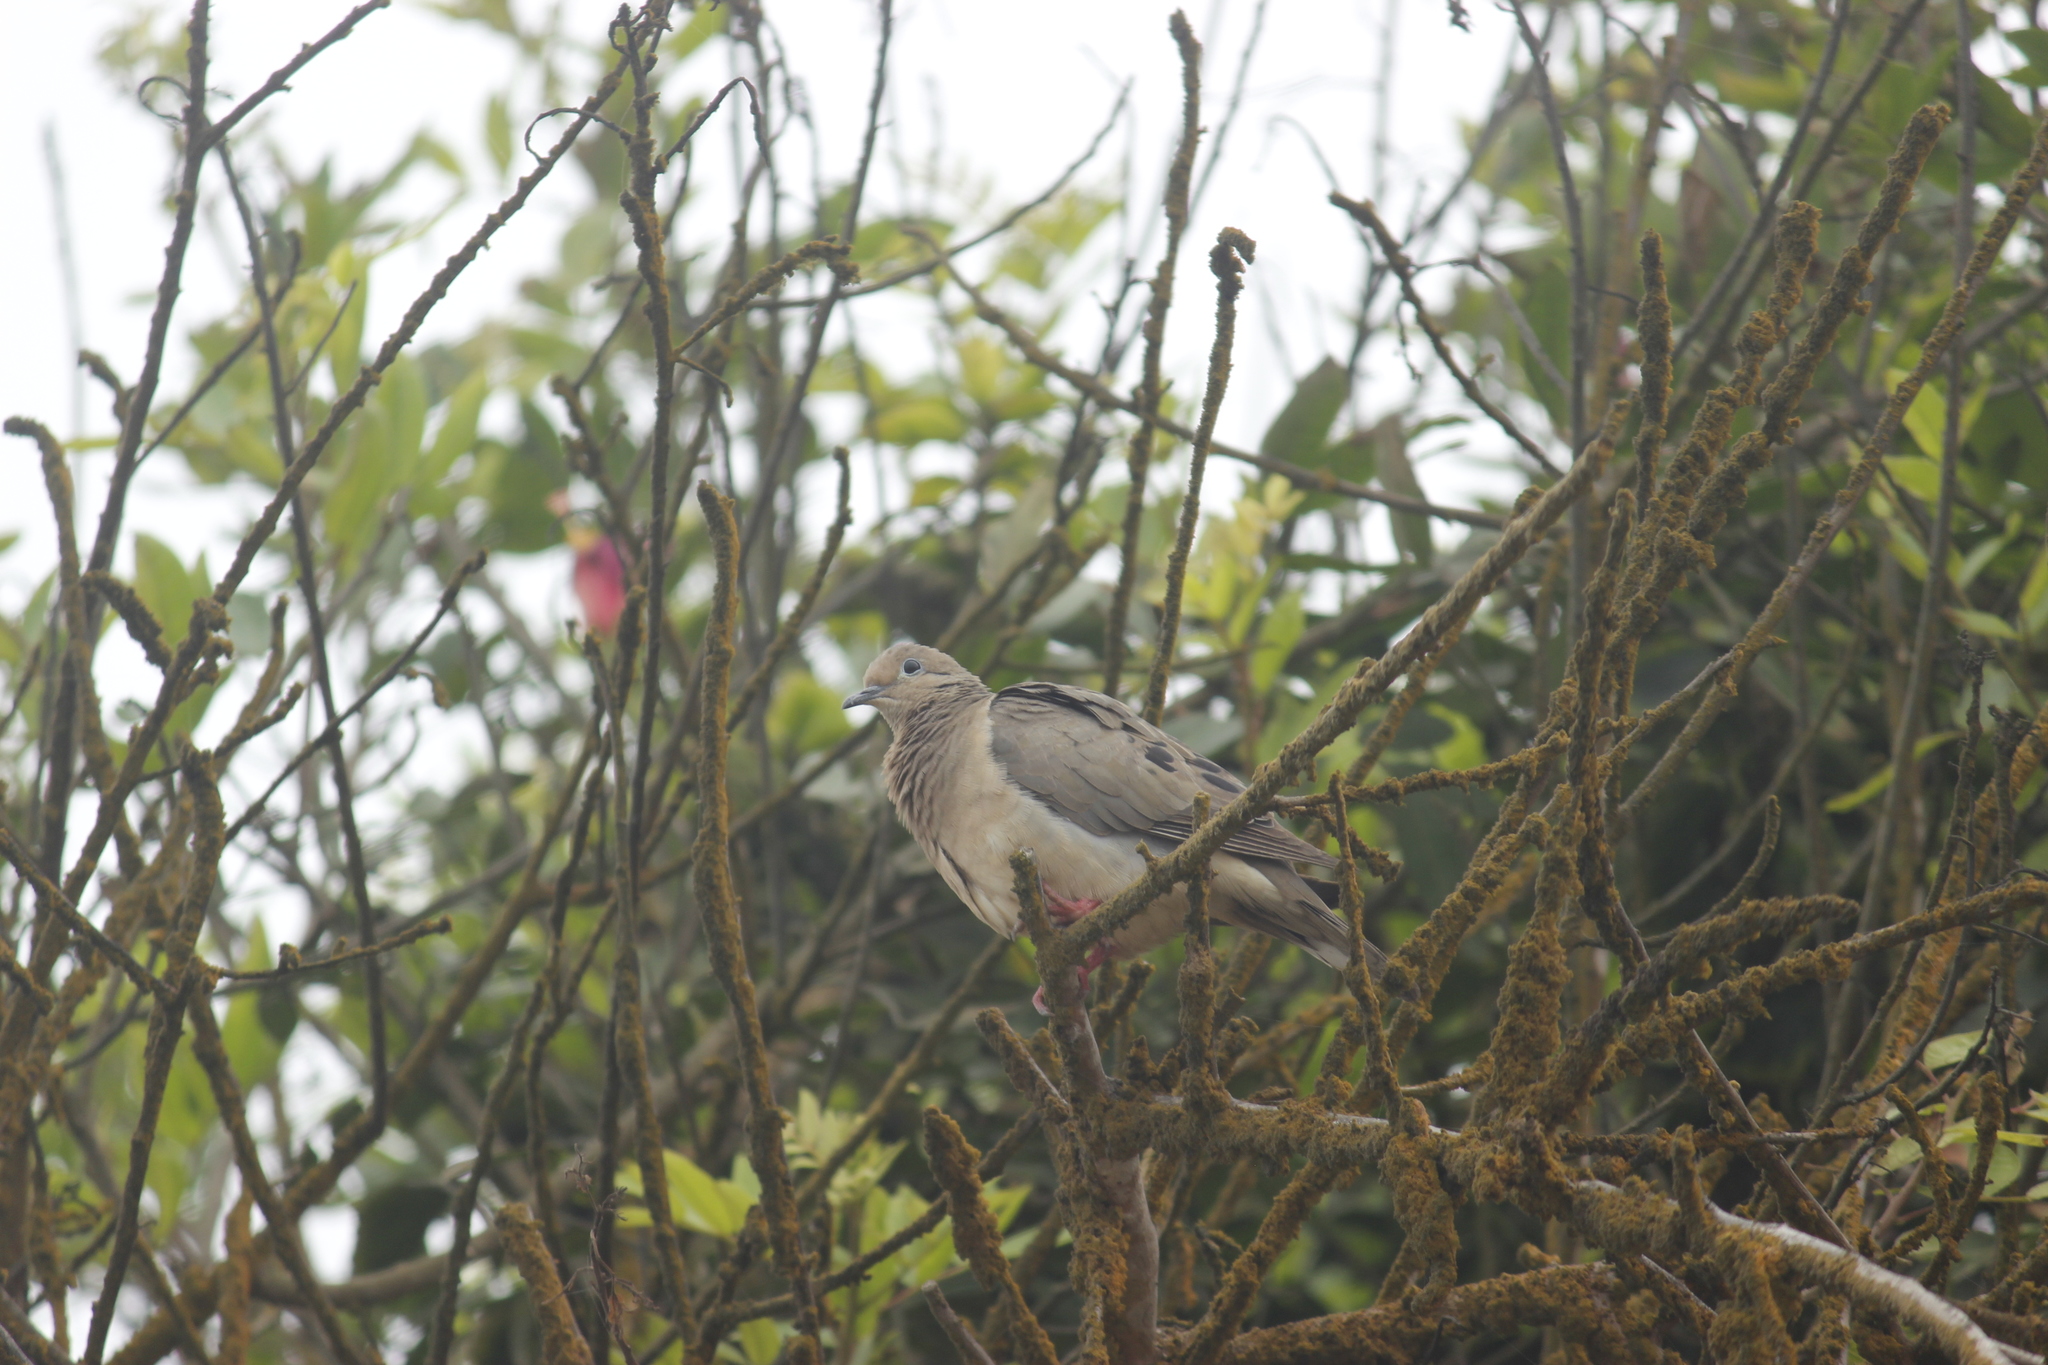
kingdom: Animalia
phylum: Chordata
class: Aves
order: Columbiformes
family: Columbidae
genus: Zenaida
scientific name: Zenaida auriculata
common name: Eared dove
